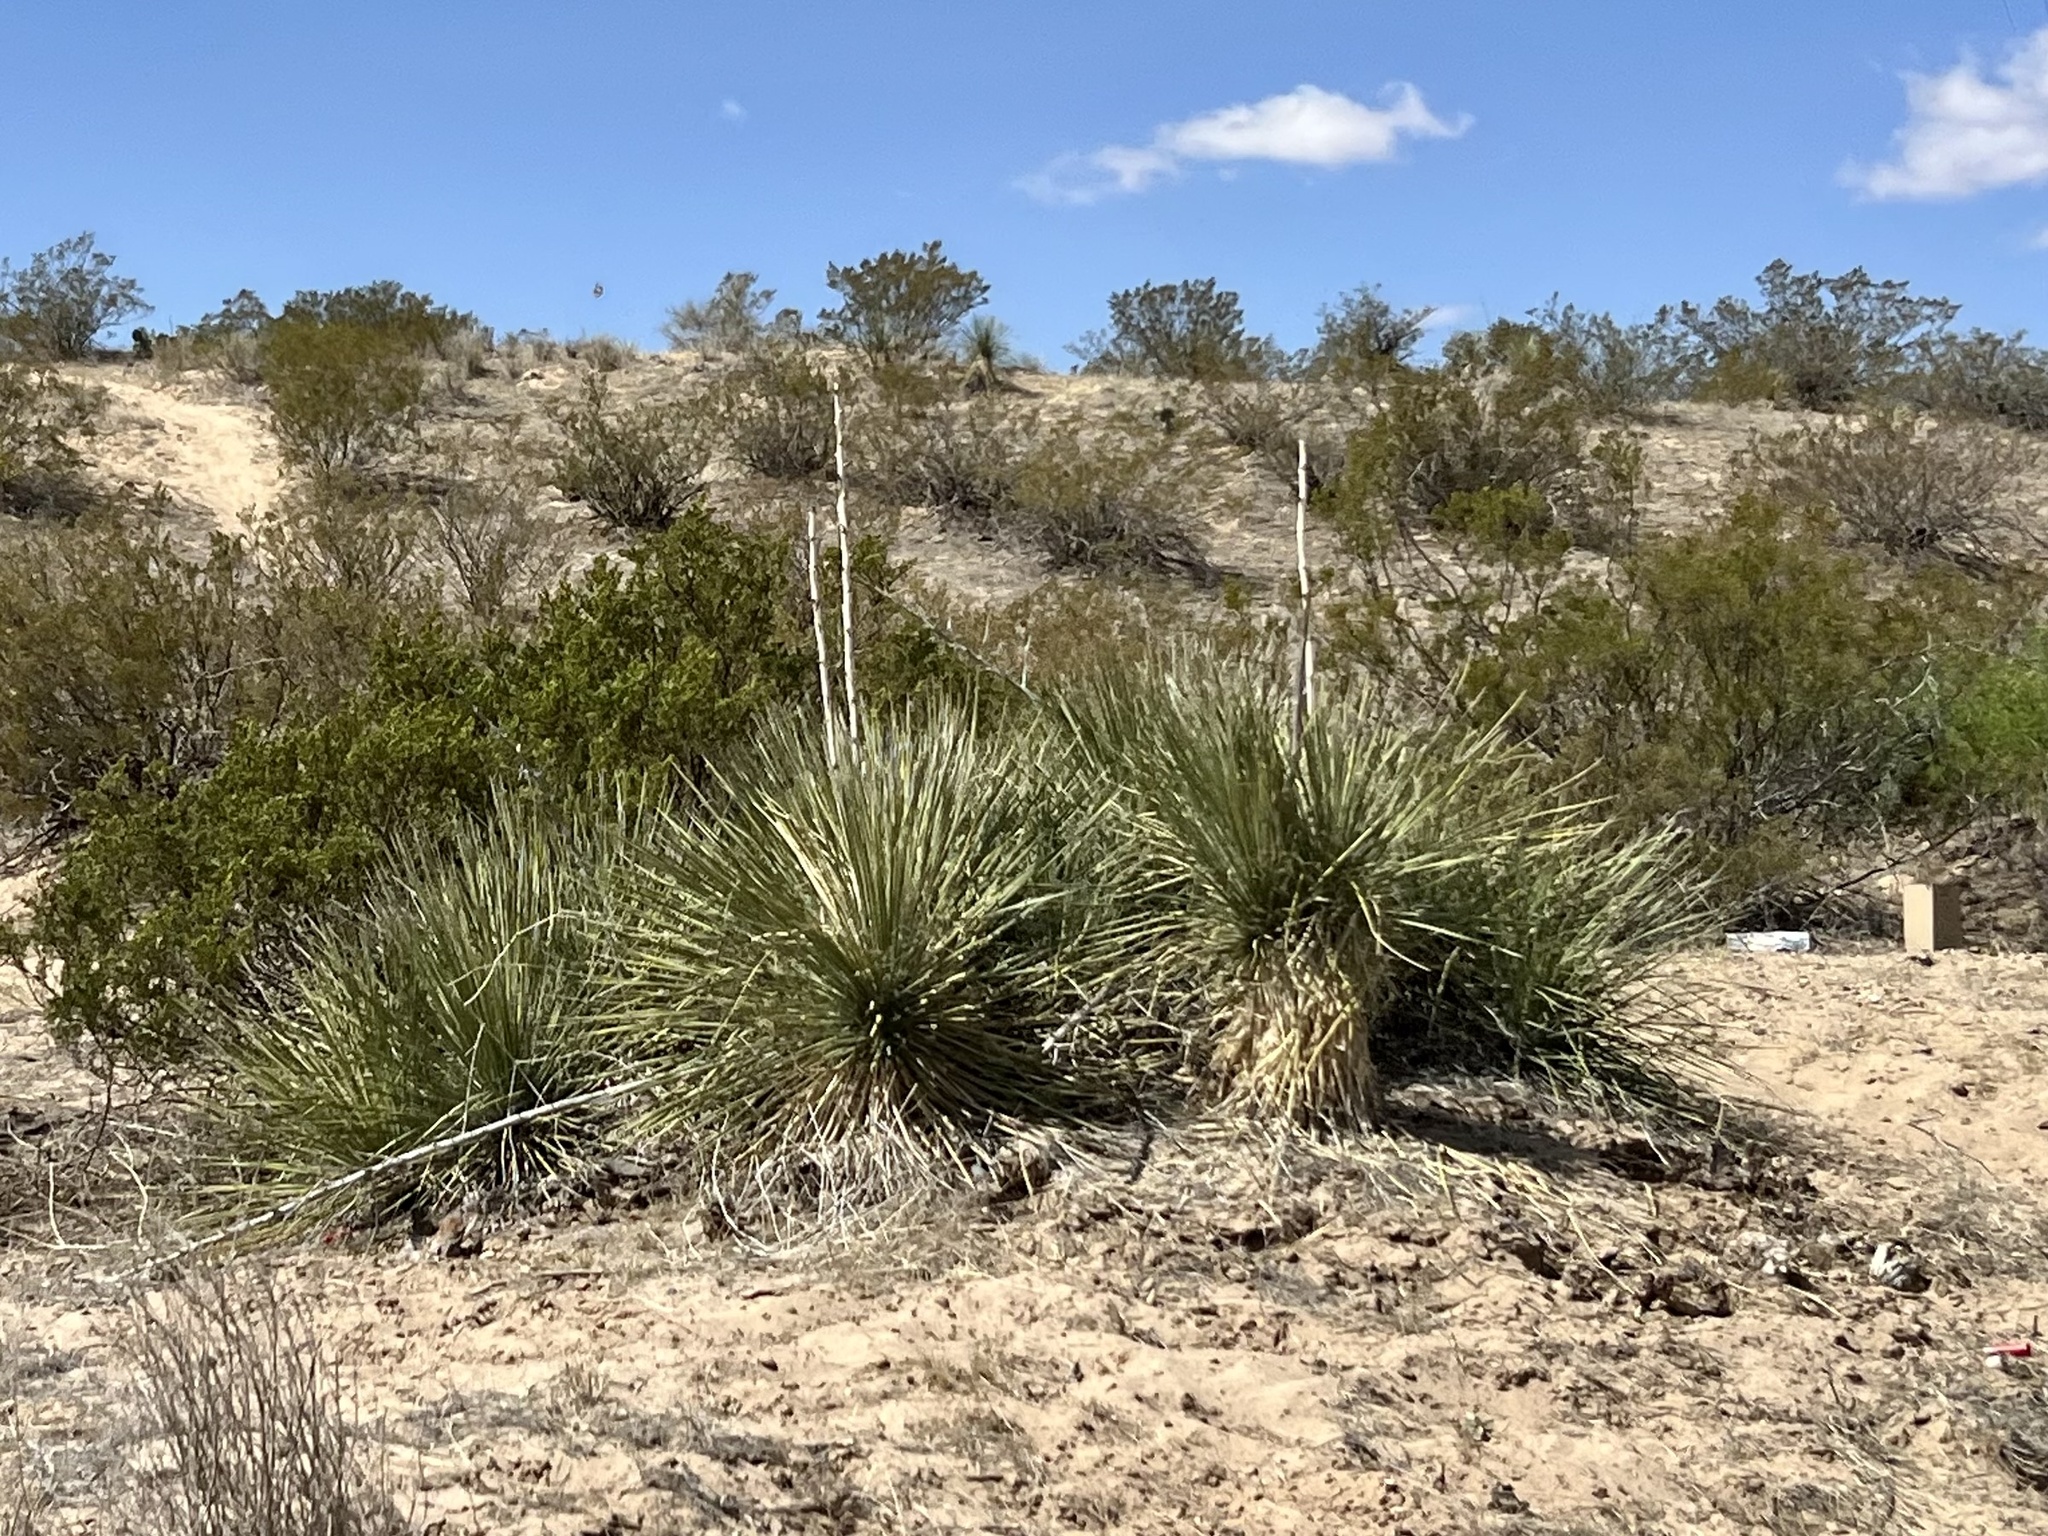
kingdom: Plantae
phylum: Tracheophyta
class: Liliopsida
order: Asparagales
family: Asparagaceae
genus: Yucca
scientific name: Yucca elata
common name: Palmella
